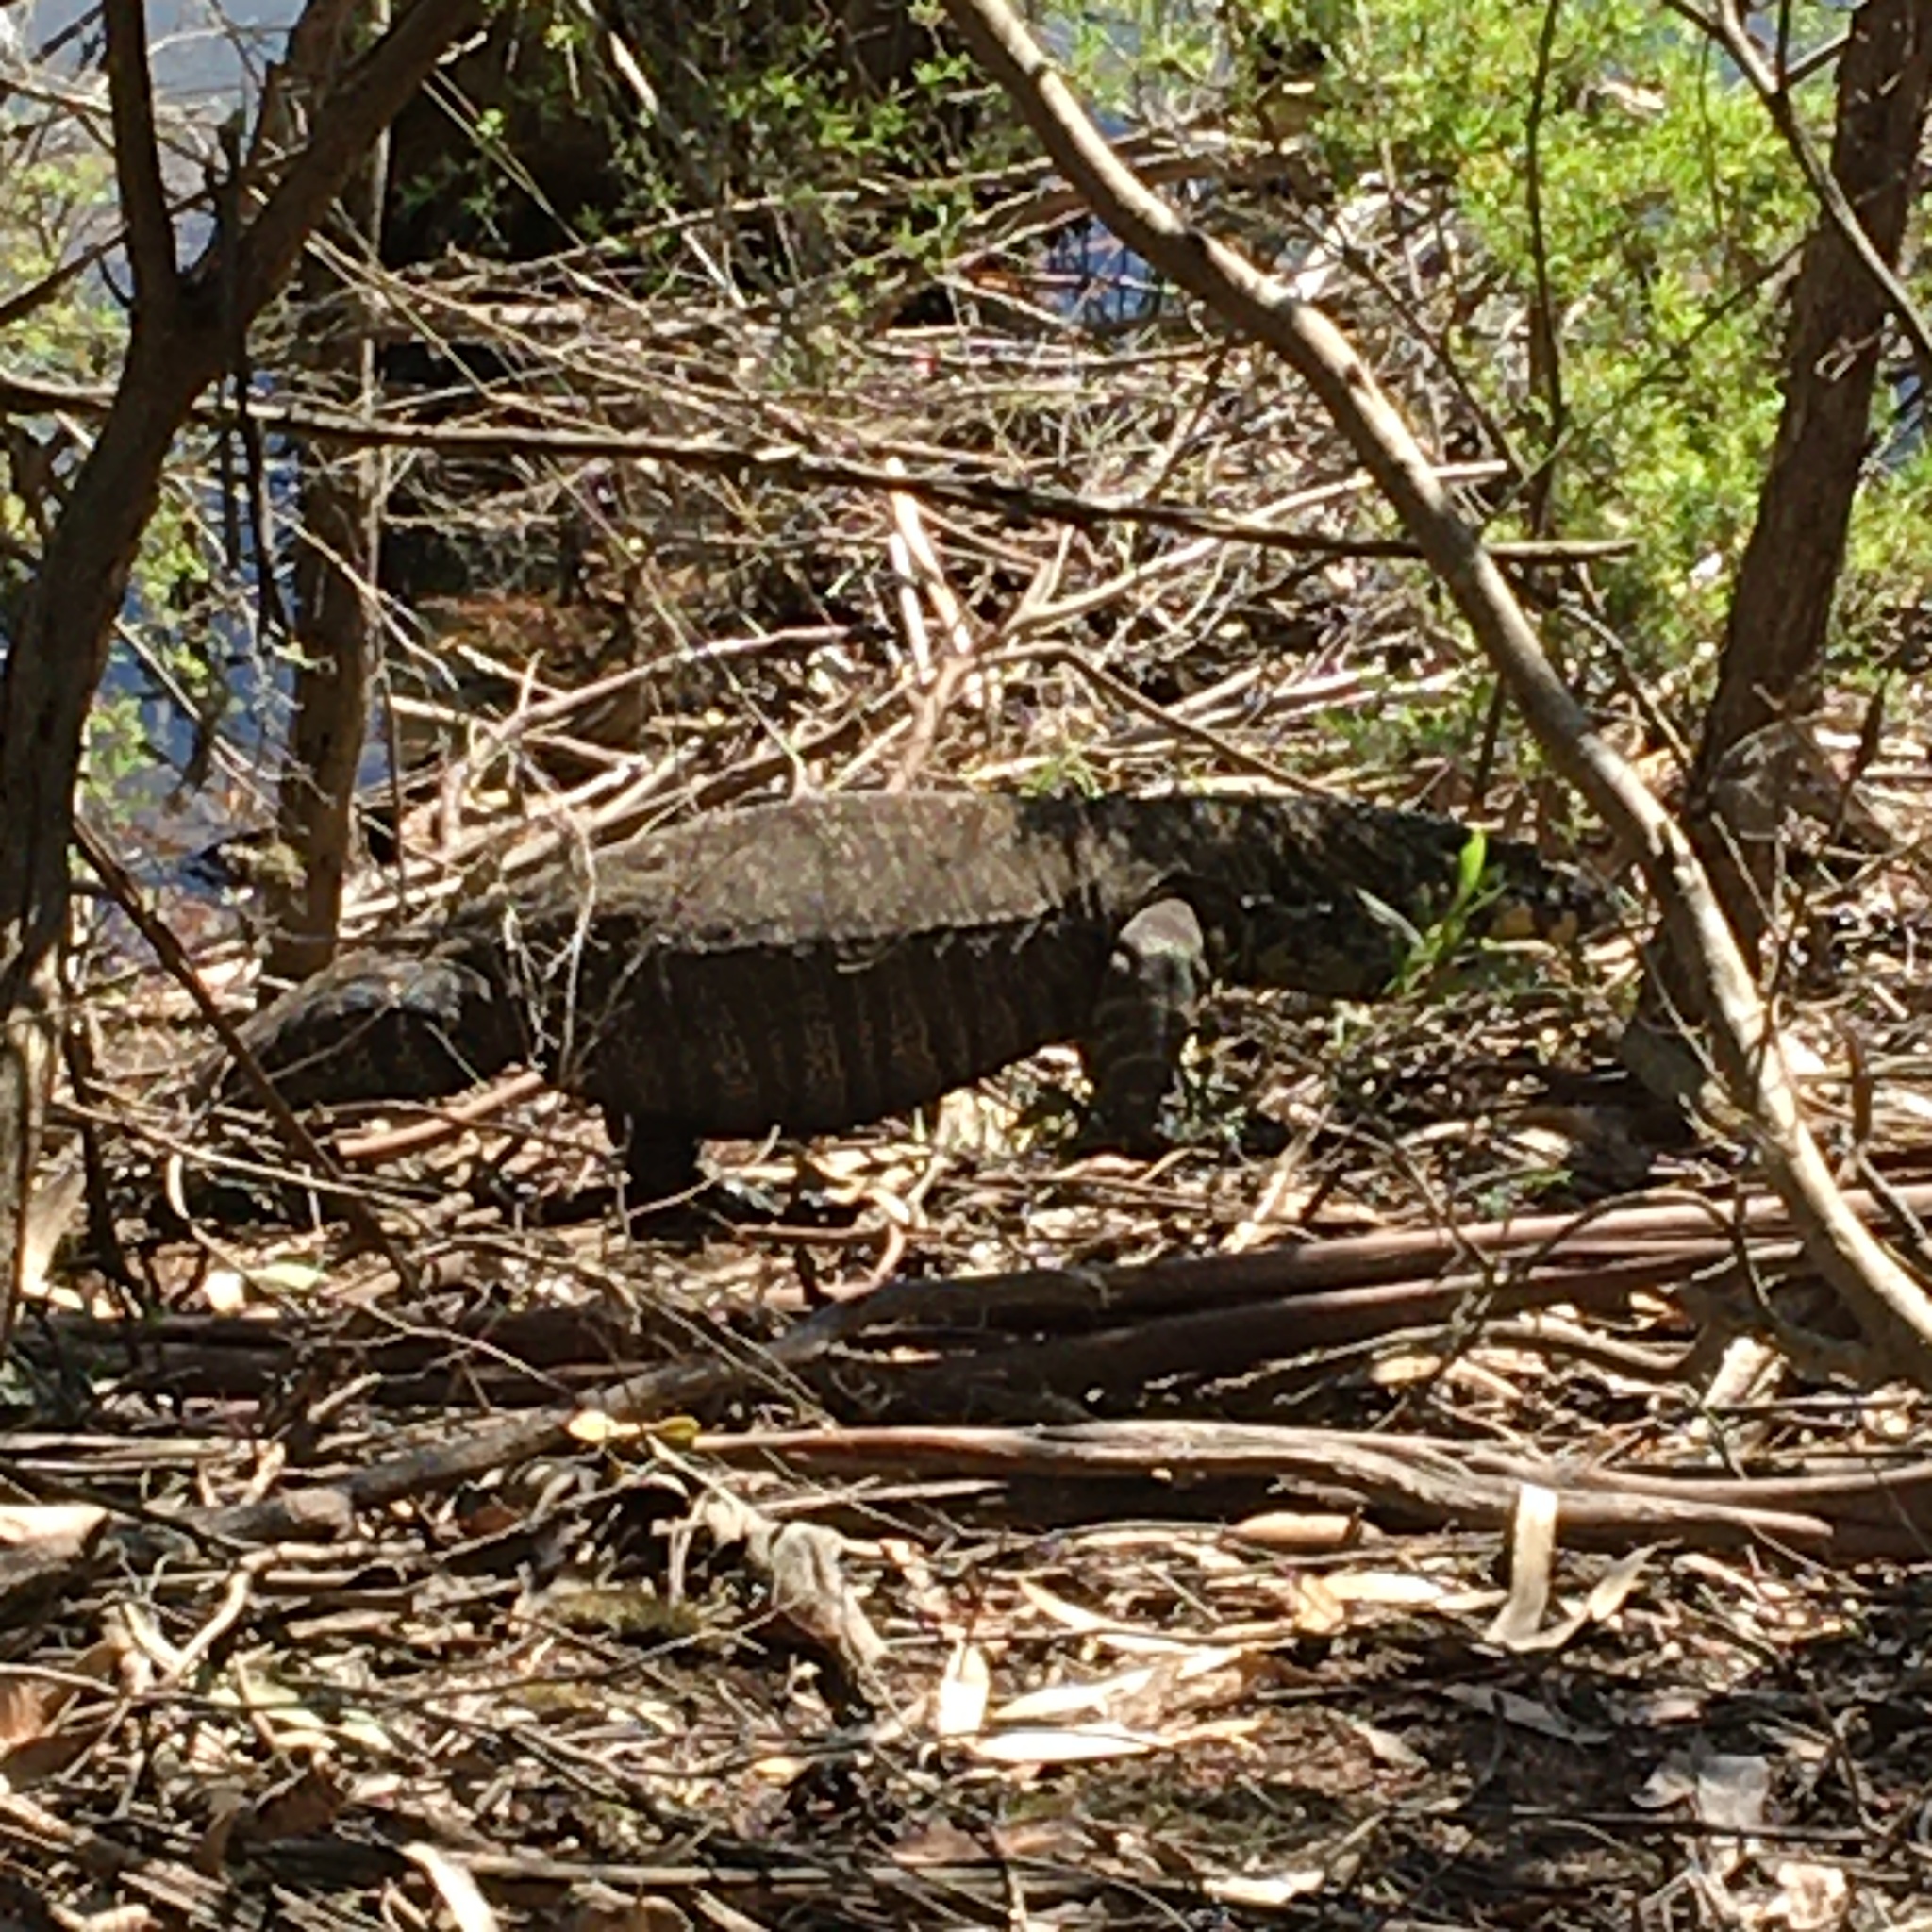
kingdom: Animalia
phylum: Chordata
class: Squamata
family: Varanidae
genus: Varanus
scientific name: Varanus varius
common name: Lace monitor
